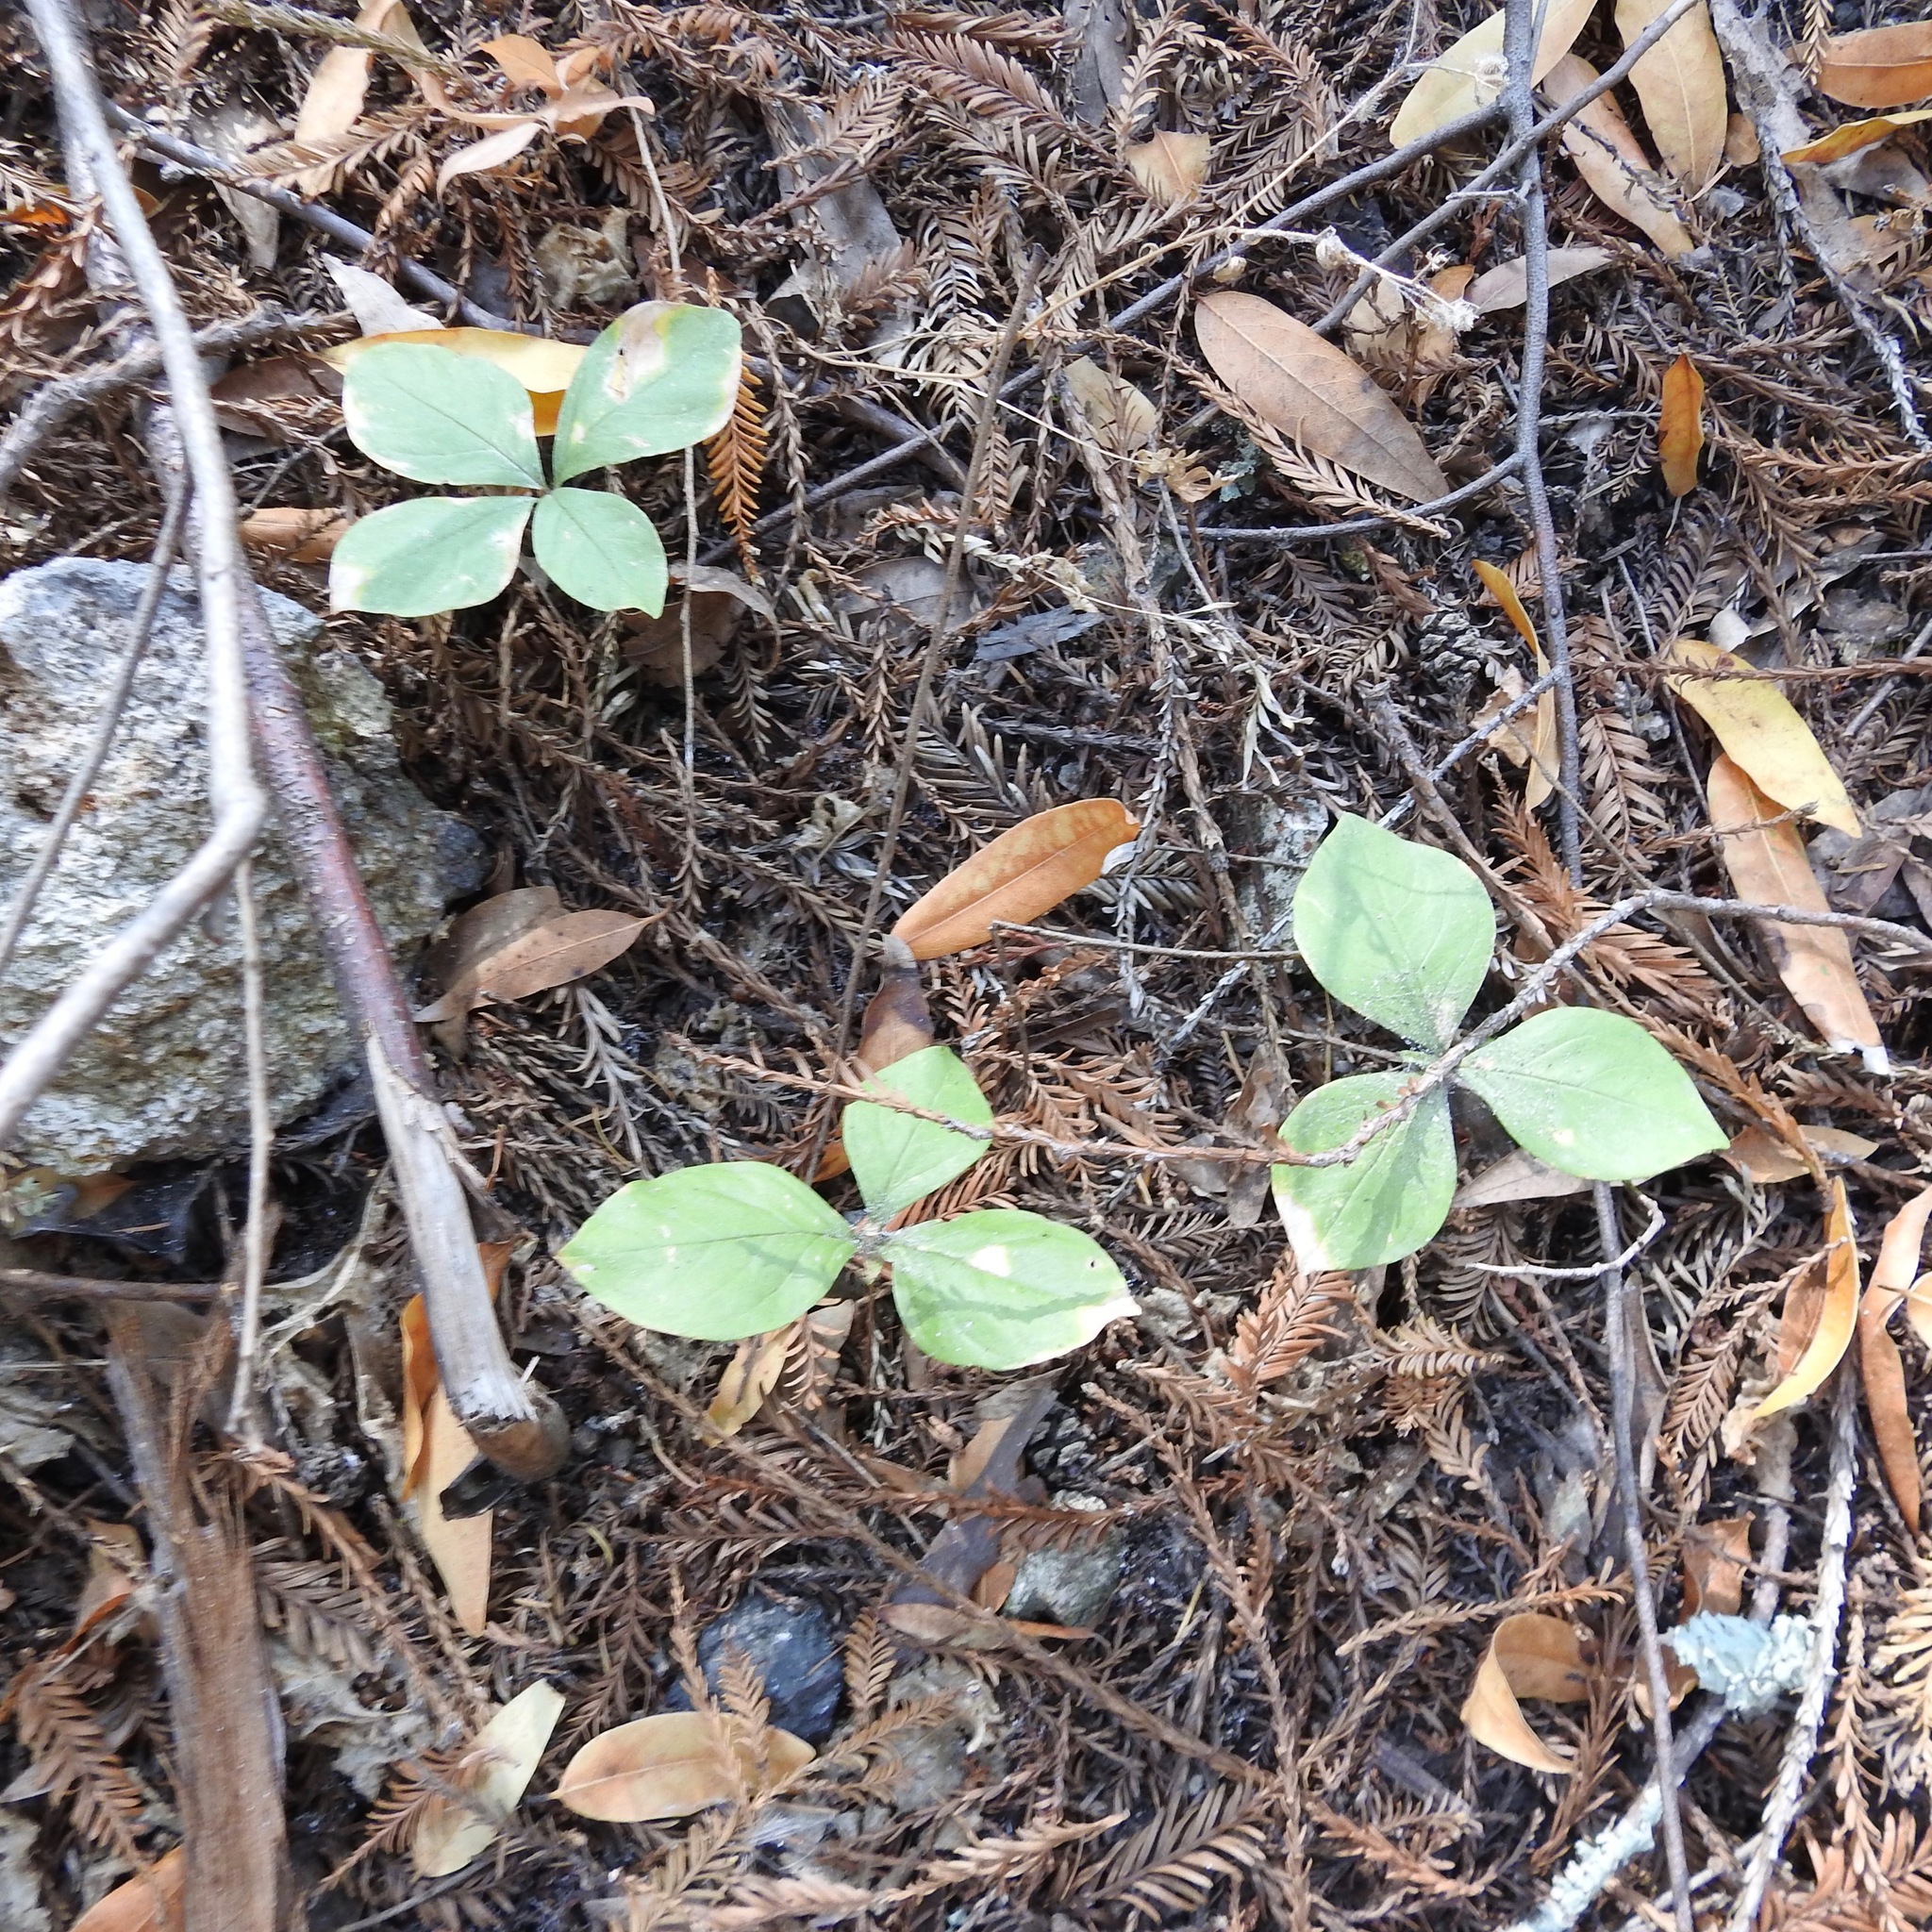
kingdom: Plantae
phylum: Tracheophyta
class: Magnoliopsida
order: Ericales
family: Primulaceae
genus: Lysimachia
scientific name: Lysimachia latifolia
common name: Pacific starflower
